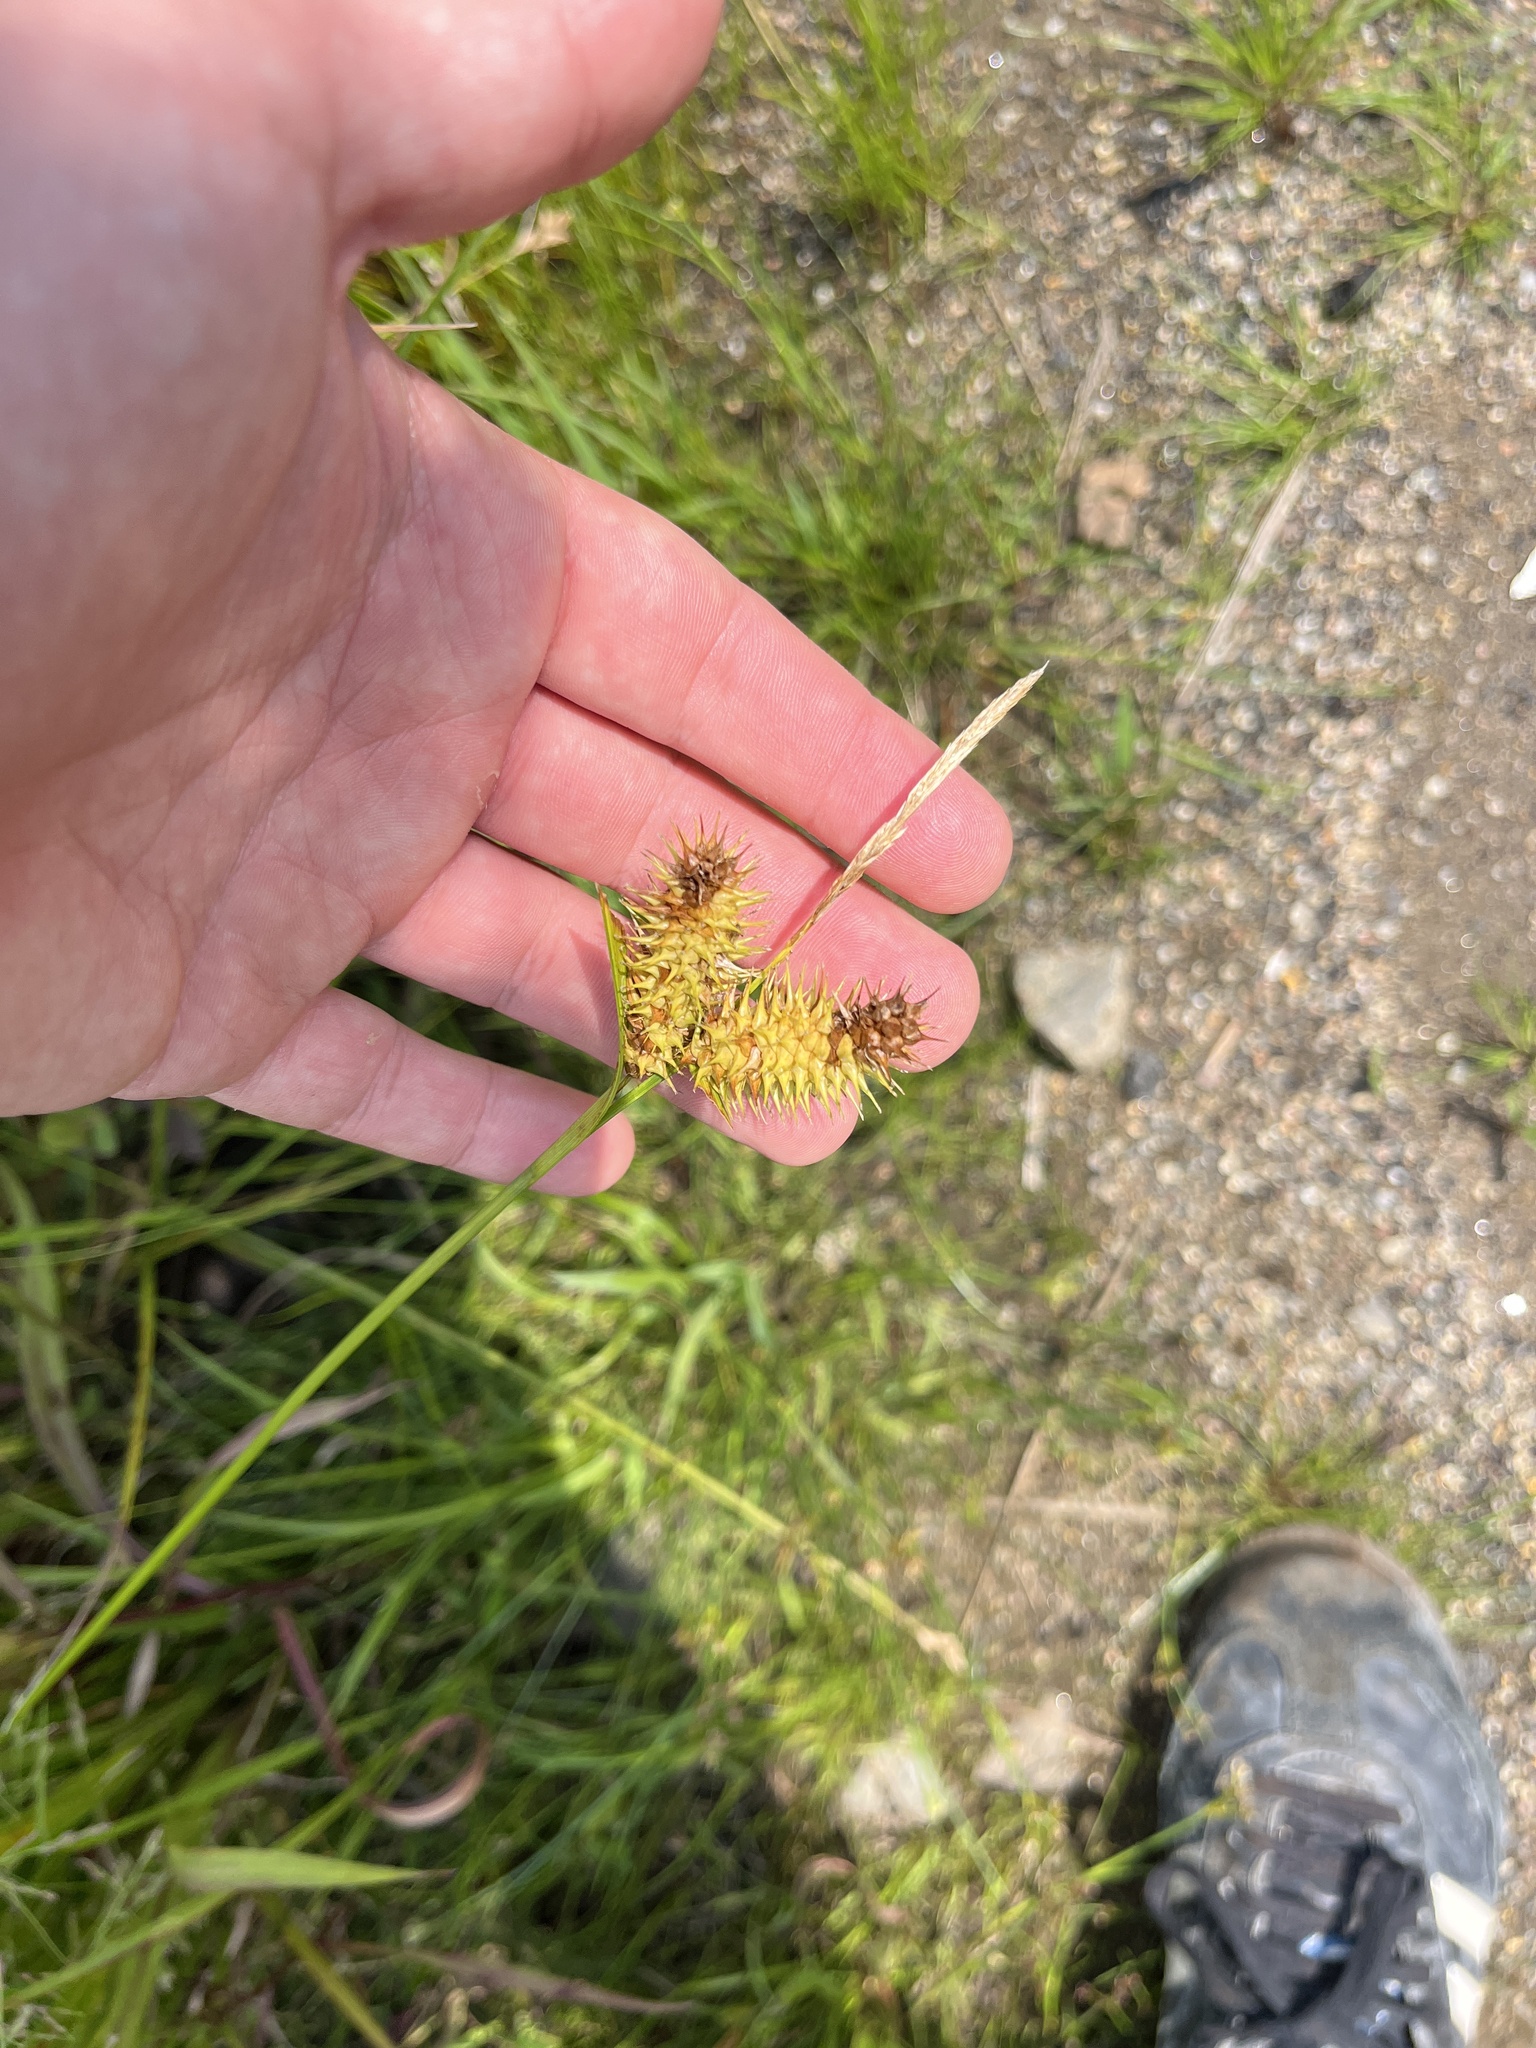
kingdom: Plantae
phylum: Tracheophyta
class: Liliopsida
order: Poales
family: Cyperaceae
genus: Carex
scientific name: Carex lurida
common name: Sallow sedge
